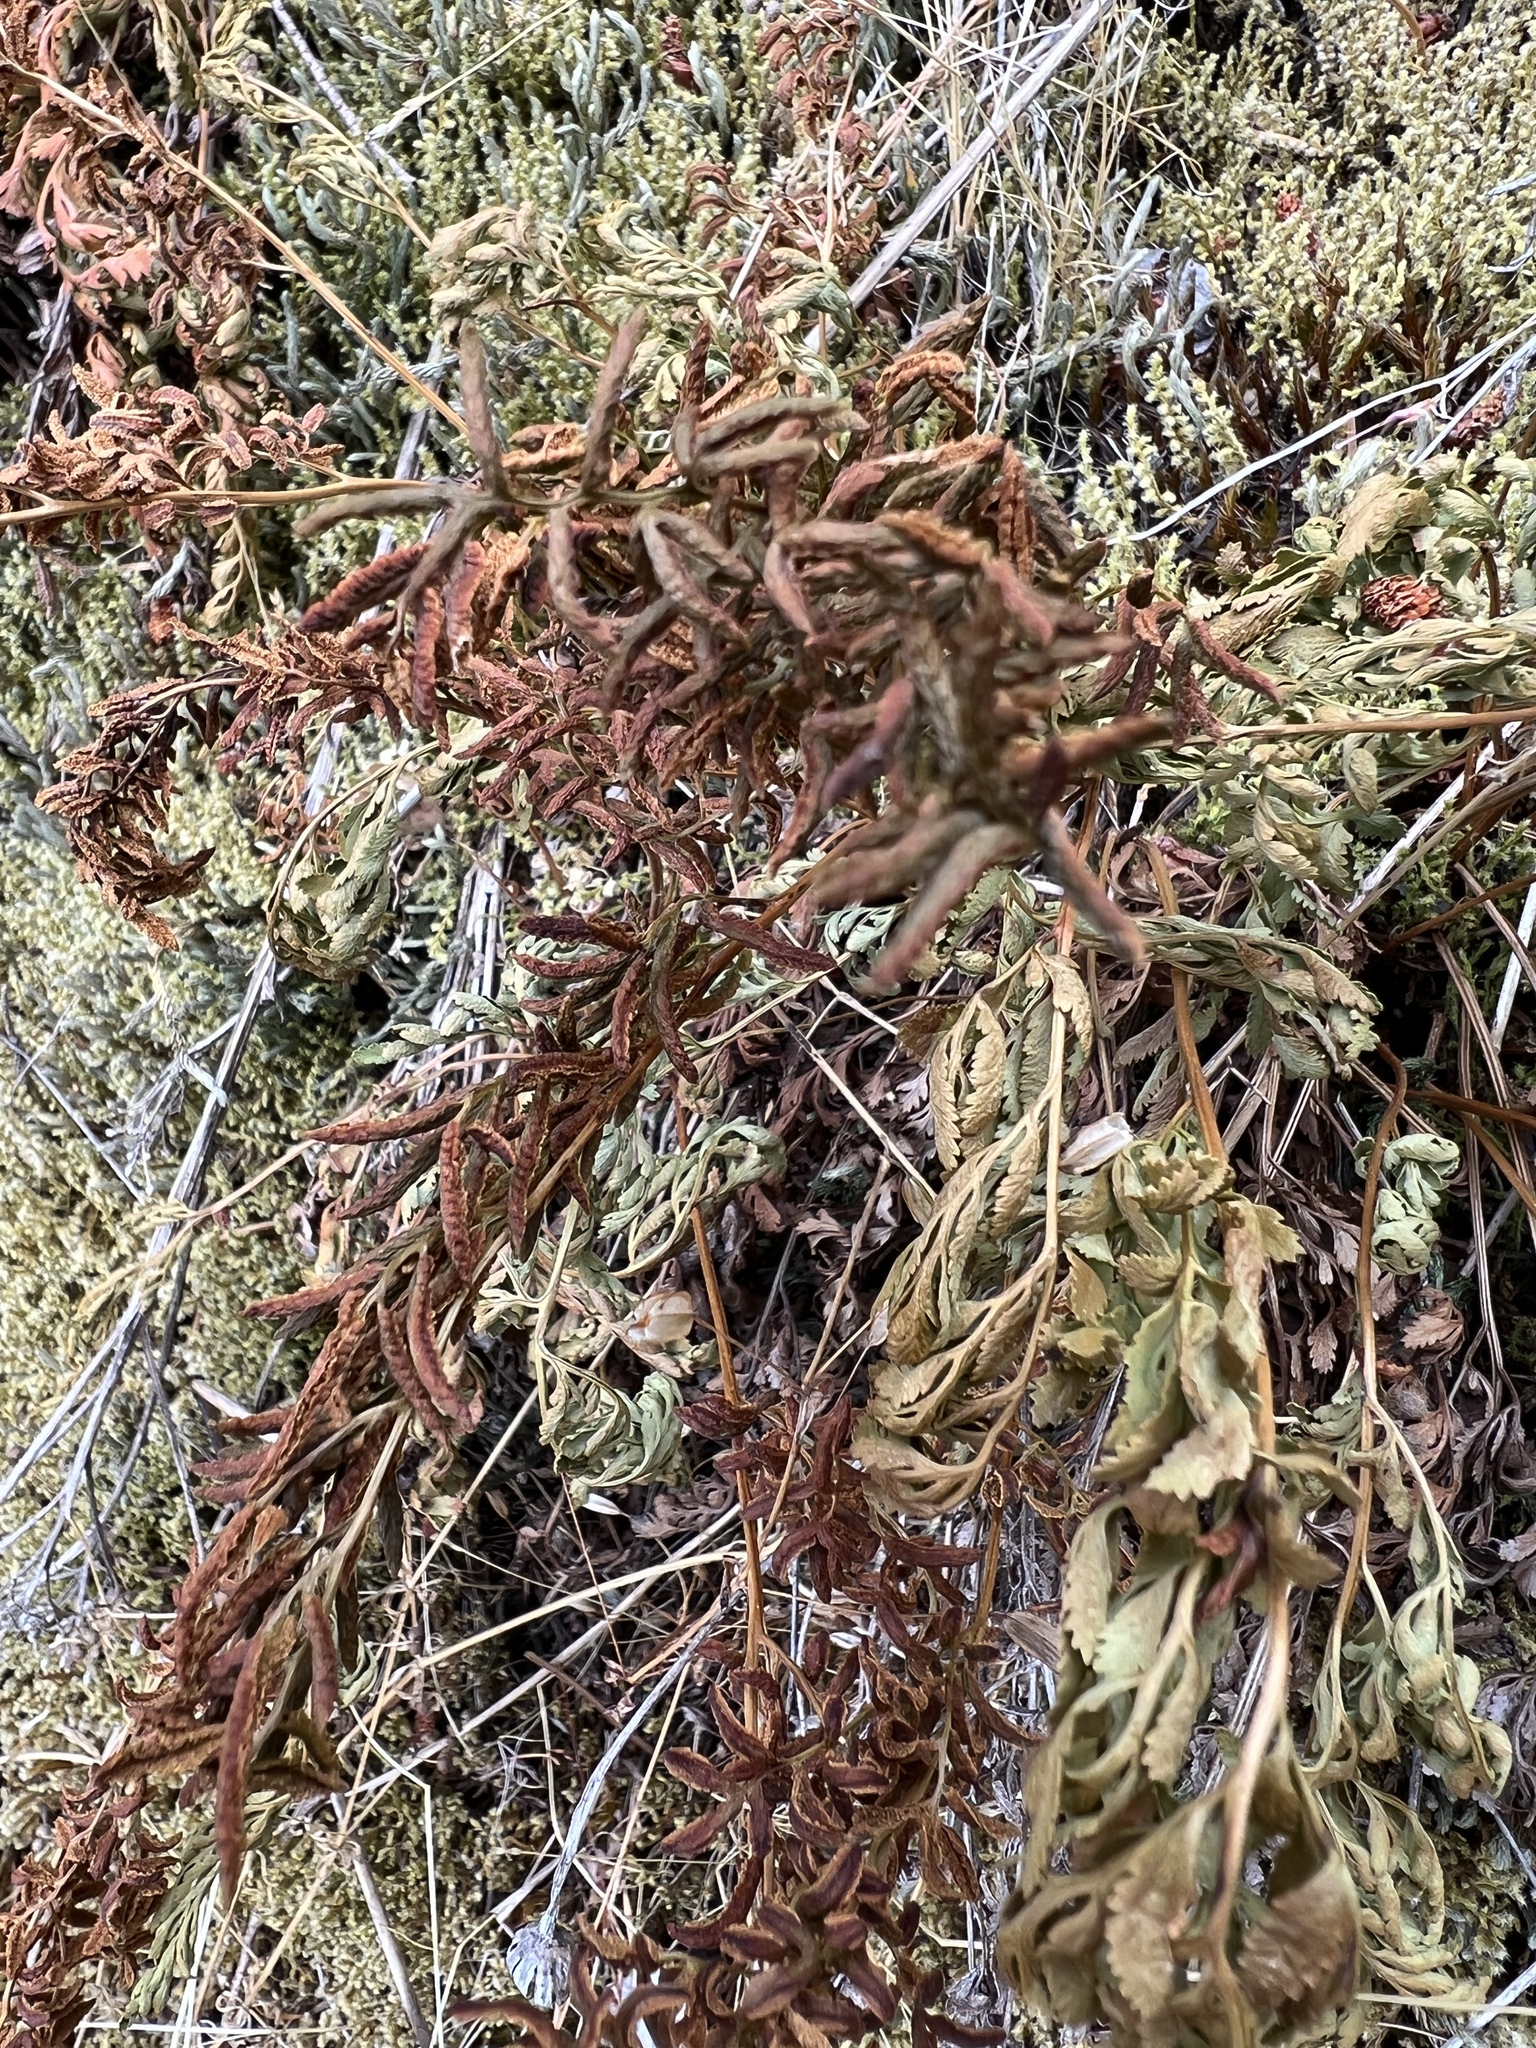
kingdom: Plantae
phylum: Tracheophyta
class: Polypodiopsida
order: Polypodiales
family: Pteridaceae
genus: Cryptogramma
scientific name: Cryptogramma acrostichoides
